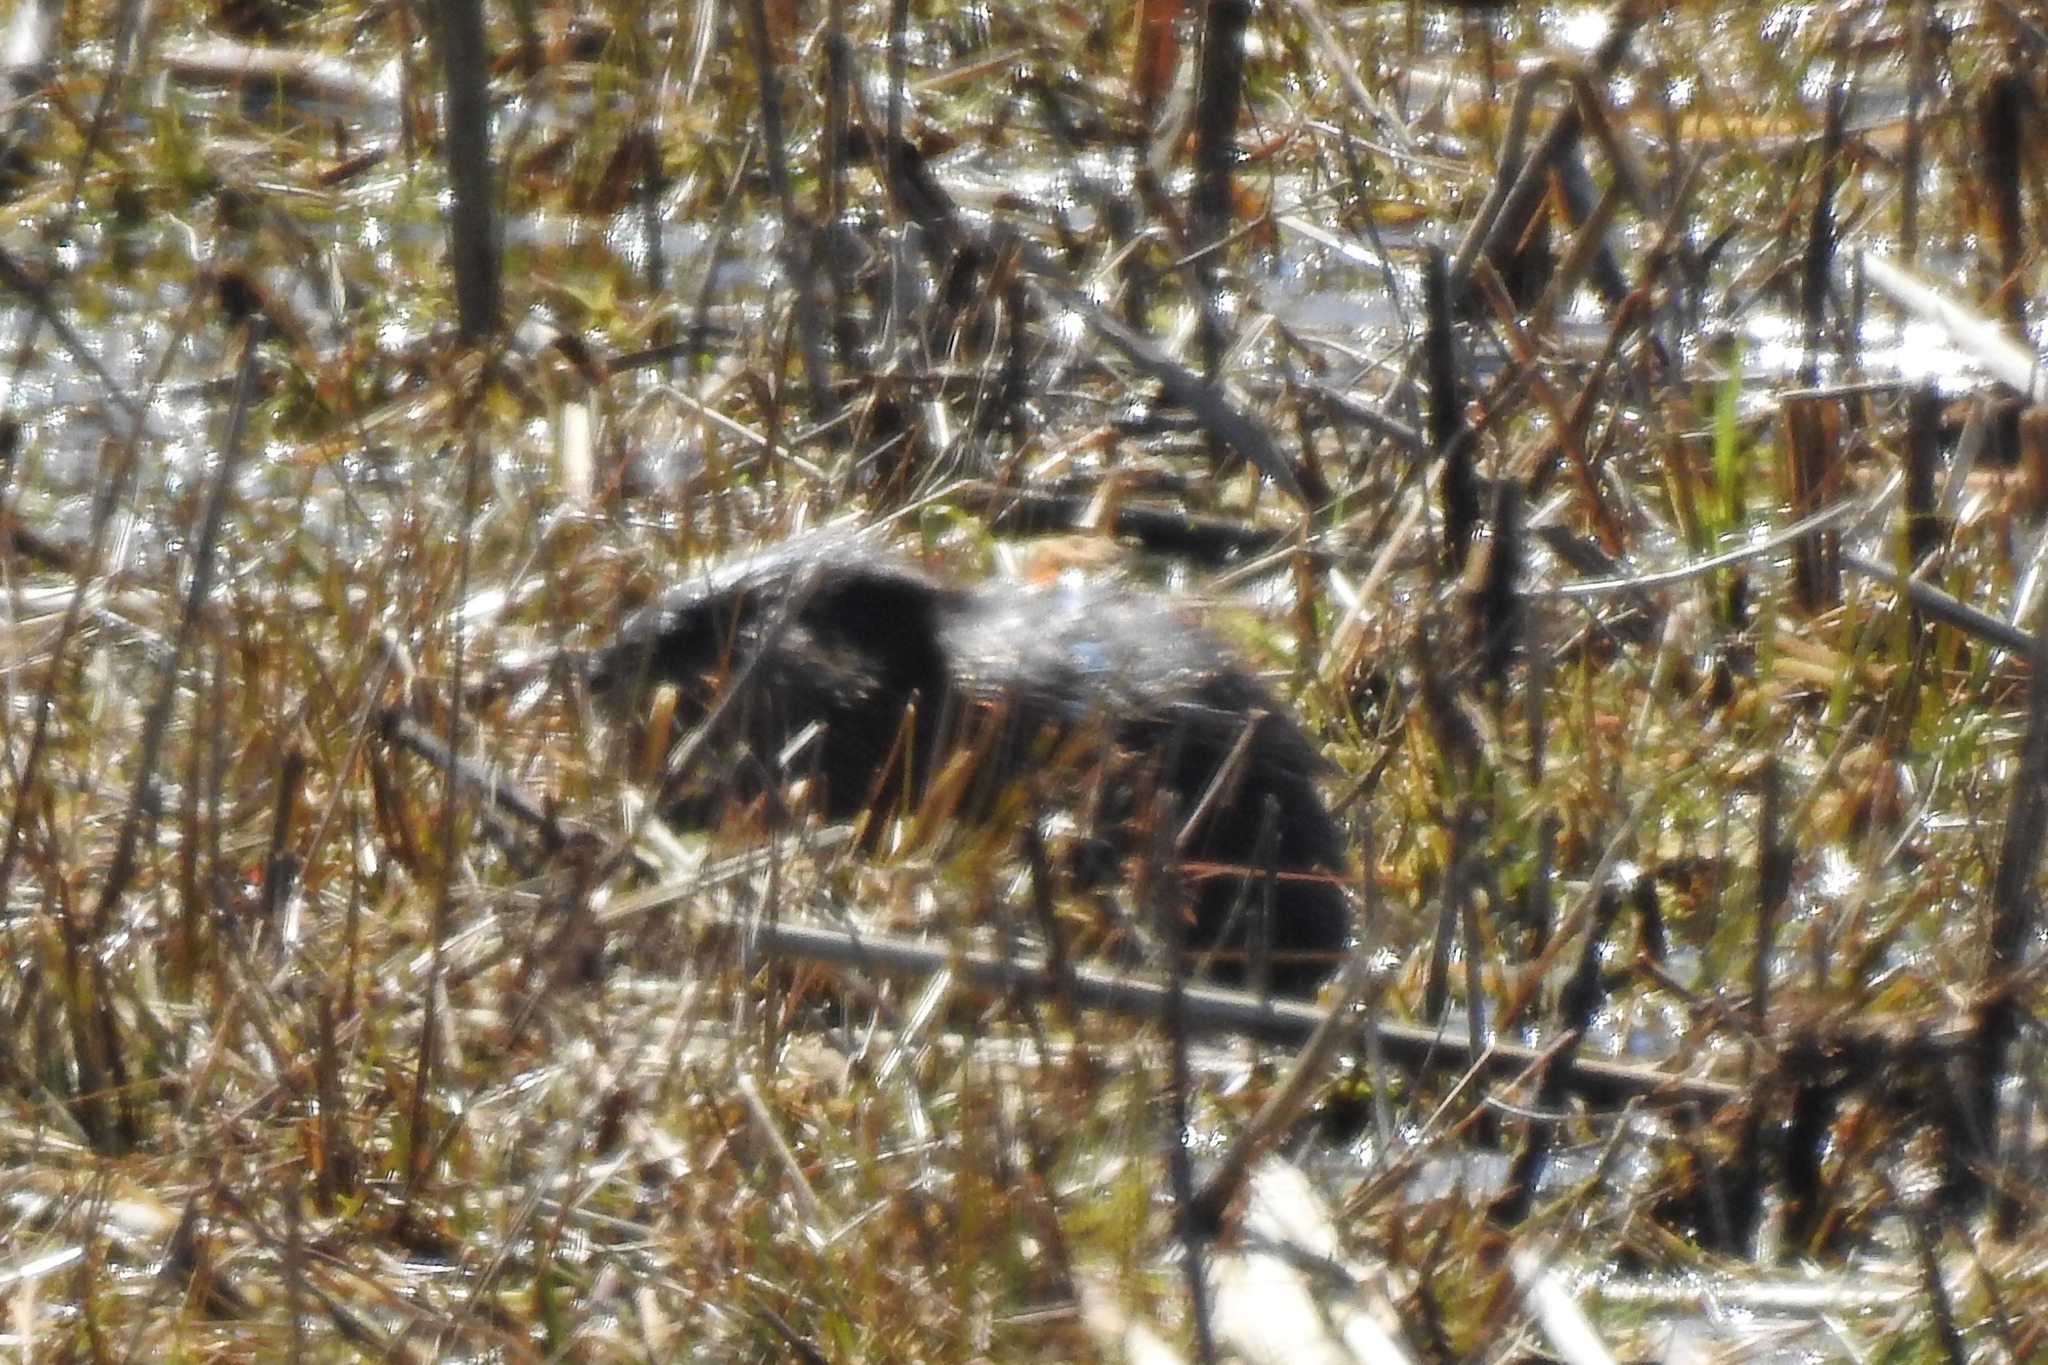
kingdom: Animalia
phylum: Chordata
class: Mammalia
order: Rodentia
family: Cricetidae
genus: Ondatra
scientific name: Ondatra zibethicus
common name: Muskrat
